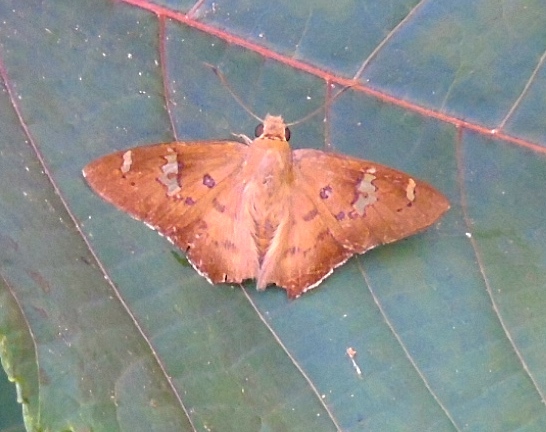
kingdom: Animalia
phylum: Arthropoda
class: Insecta
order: Lepidoptera
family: Hesperiidae
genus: Ectomis
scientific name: Ectomis
